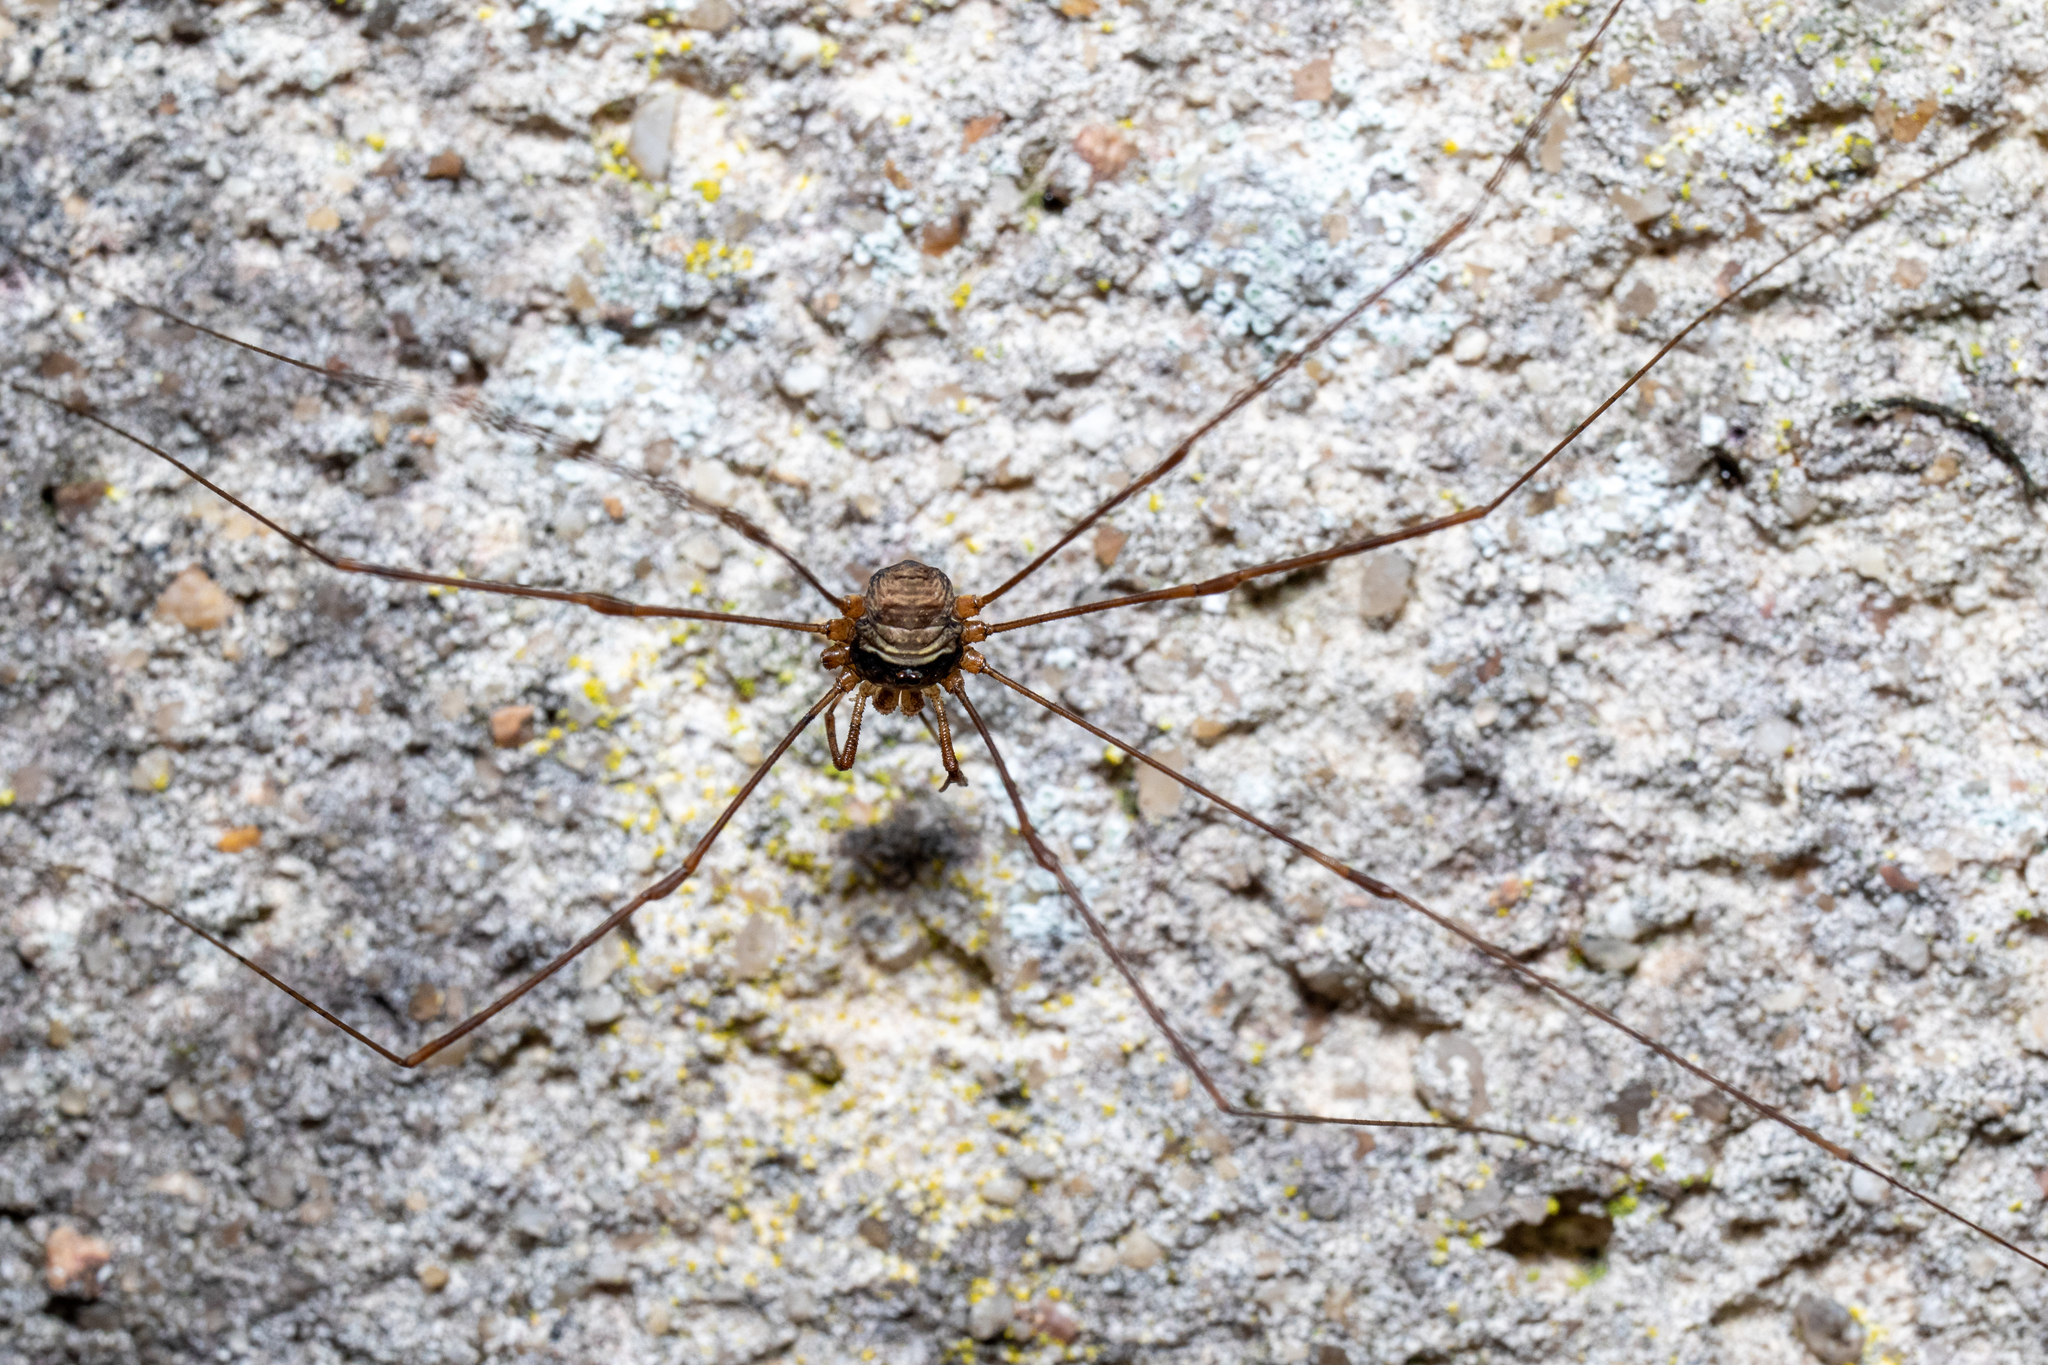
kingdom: Animalia
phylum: Arthropoda
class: Arachnida
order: Opiliones
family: Phalangiidae
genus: Dicranopalpus
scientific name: Dicranopalpus ramosus
